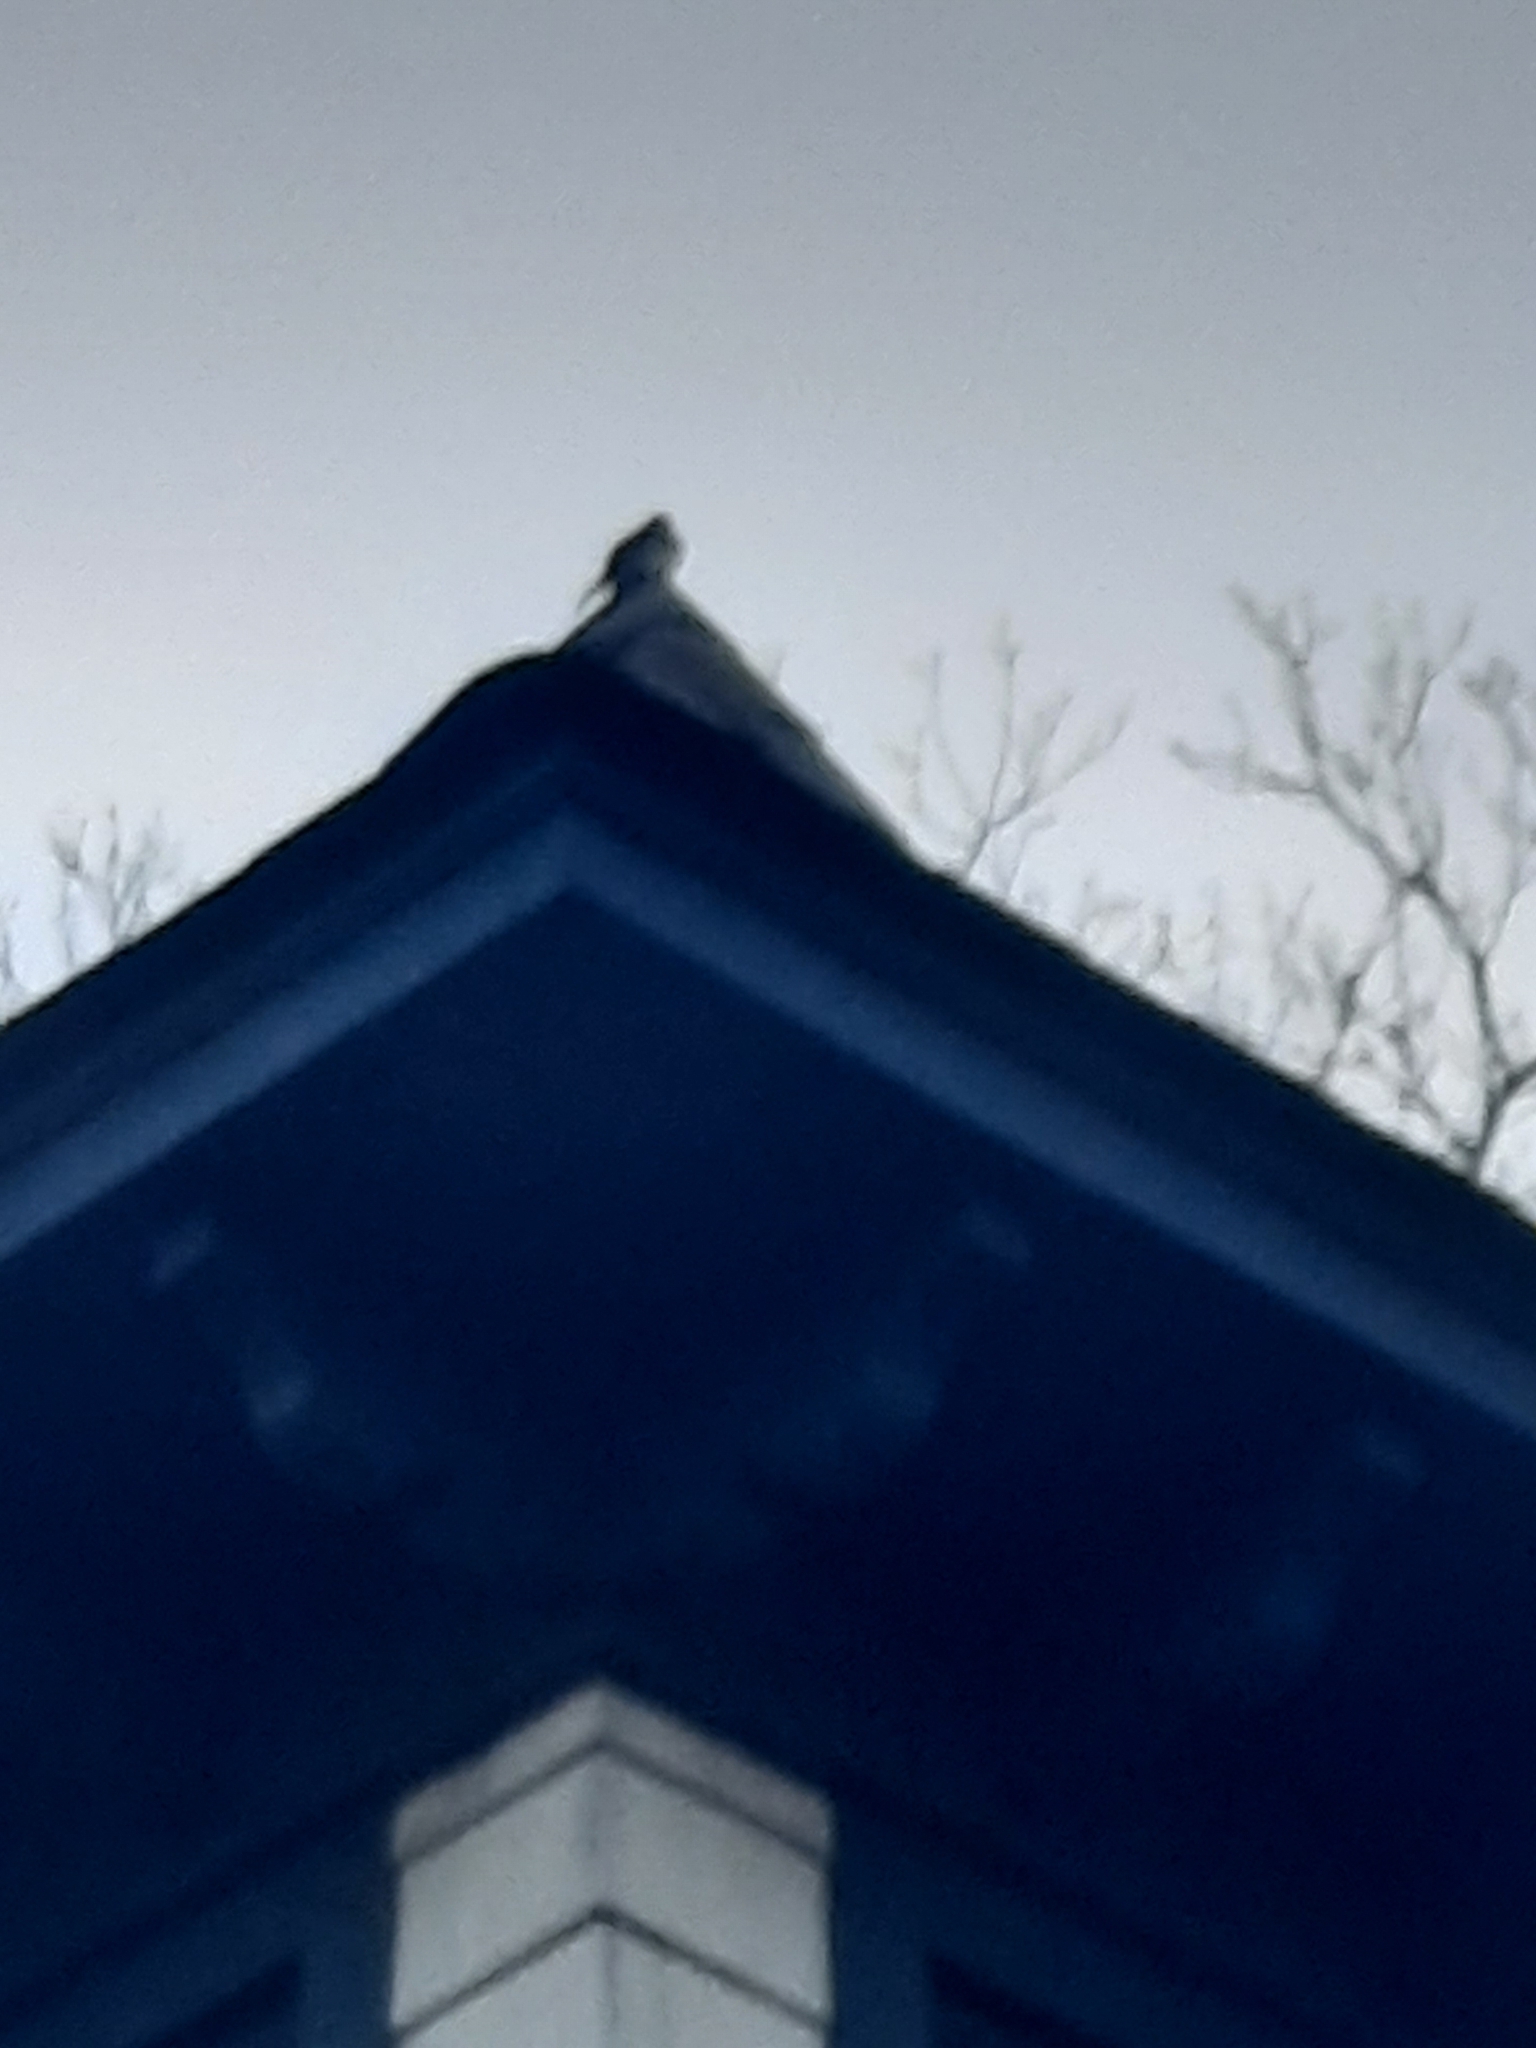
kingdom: Animalia
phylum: Chordata
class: Aves
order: Passeriformes
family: Tyrannidae
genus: Sayornis
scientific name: Sayornis phoebe
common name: Eastern phoebe
